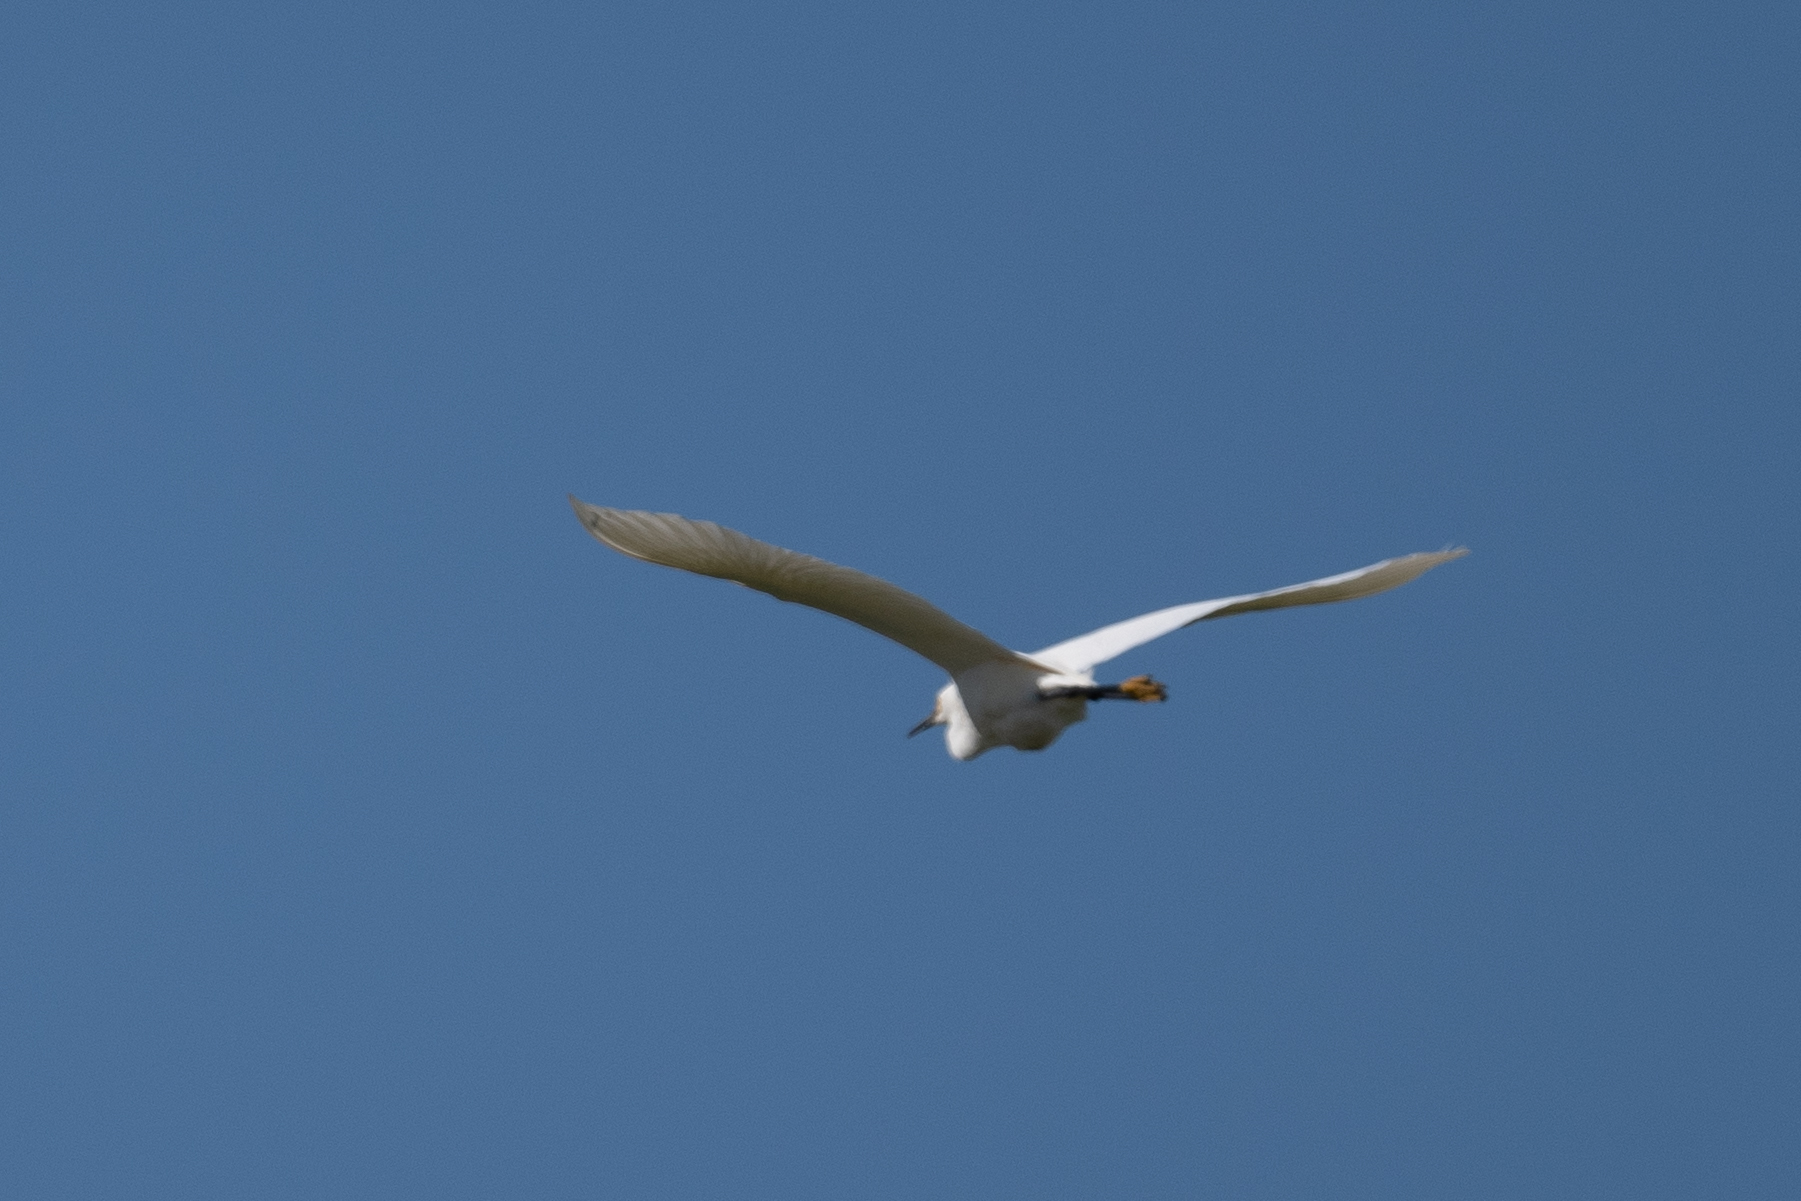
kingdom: Animalia
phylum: Chordata
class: Aves
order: Pelecaniformes
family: Ardeidae
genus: Egretta
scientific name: Egretta thula
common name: Snowy egret
